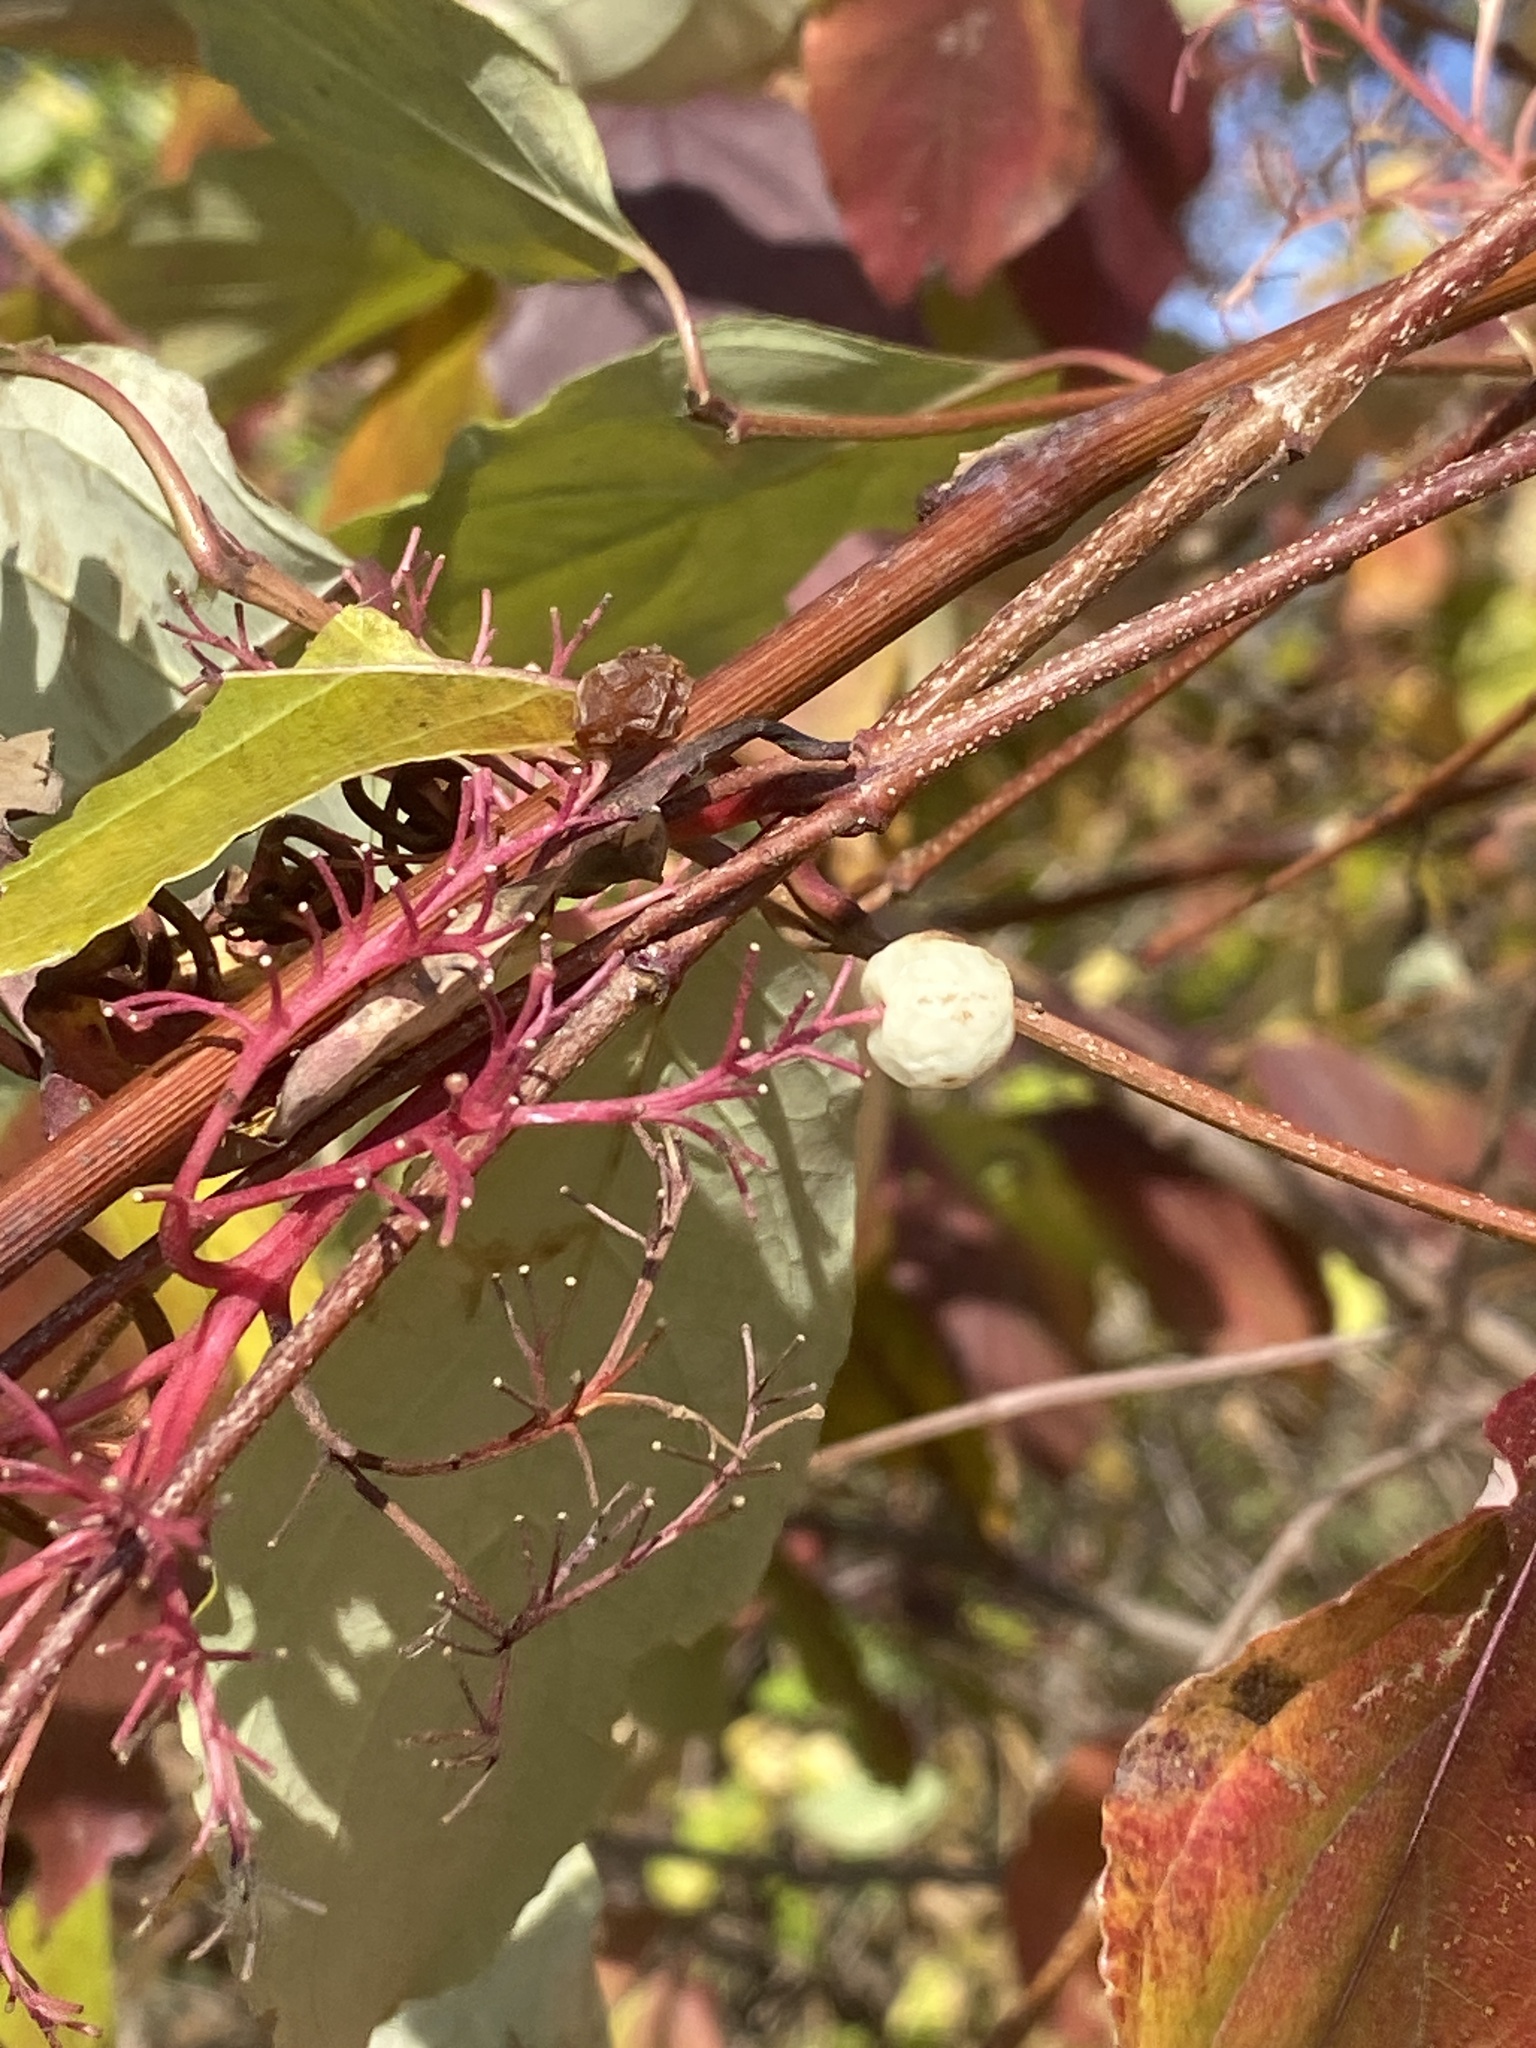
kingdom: Plantae
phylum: Tracheophyta
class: Magnoliopsida
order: Cornales
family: Cornaceae
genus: Cornus
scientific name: Cornus racemosa
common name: Panicled dogwood
